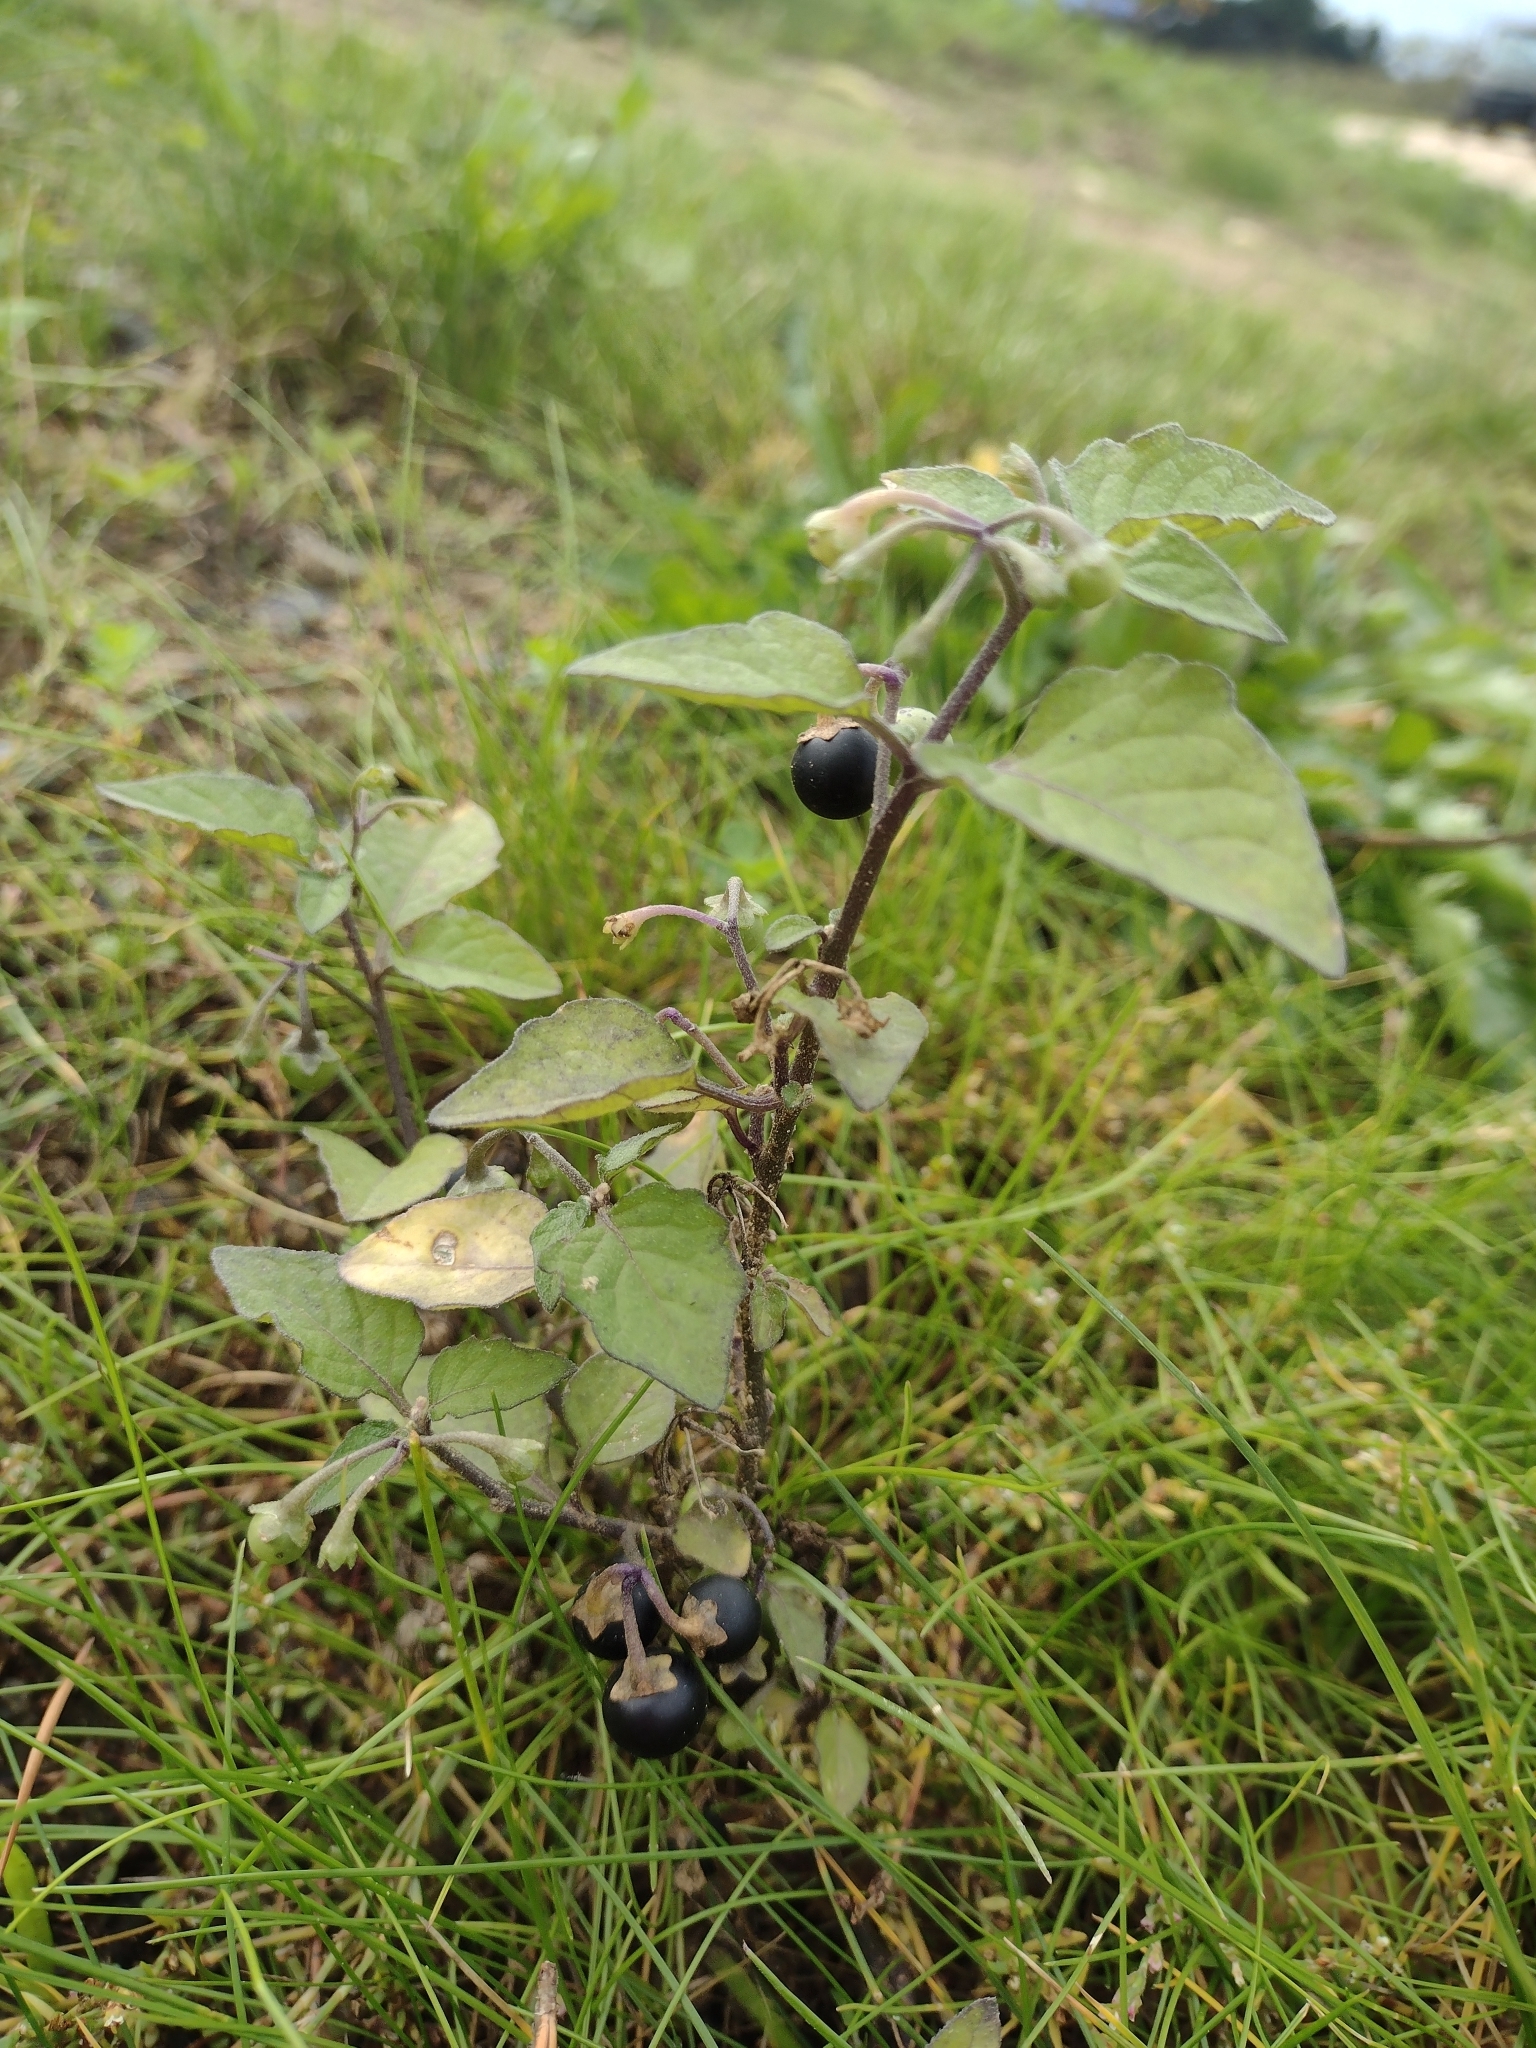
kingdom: Plantae
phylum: Tracheophyta
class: Magnoliopsida
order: Solanales
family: Solanaceae
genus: Solanum
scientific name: Solanum nigrum
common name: Black nightshade
